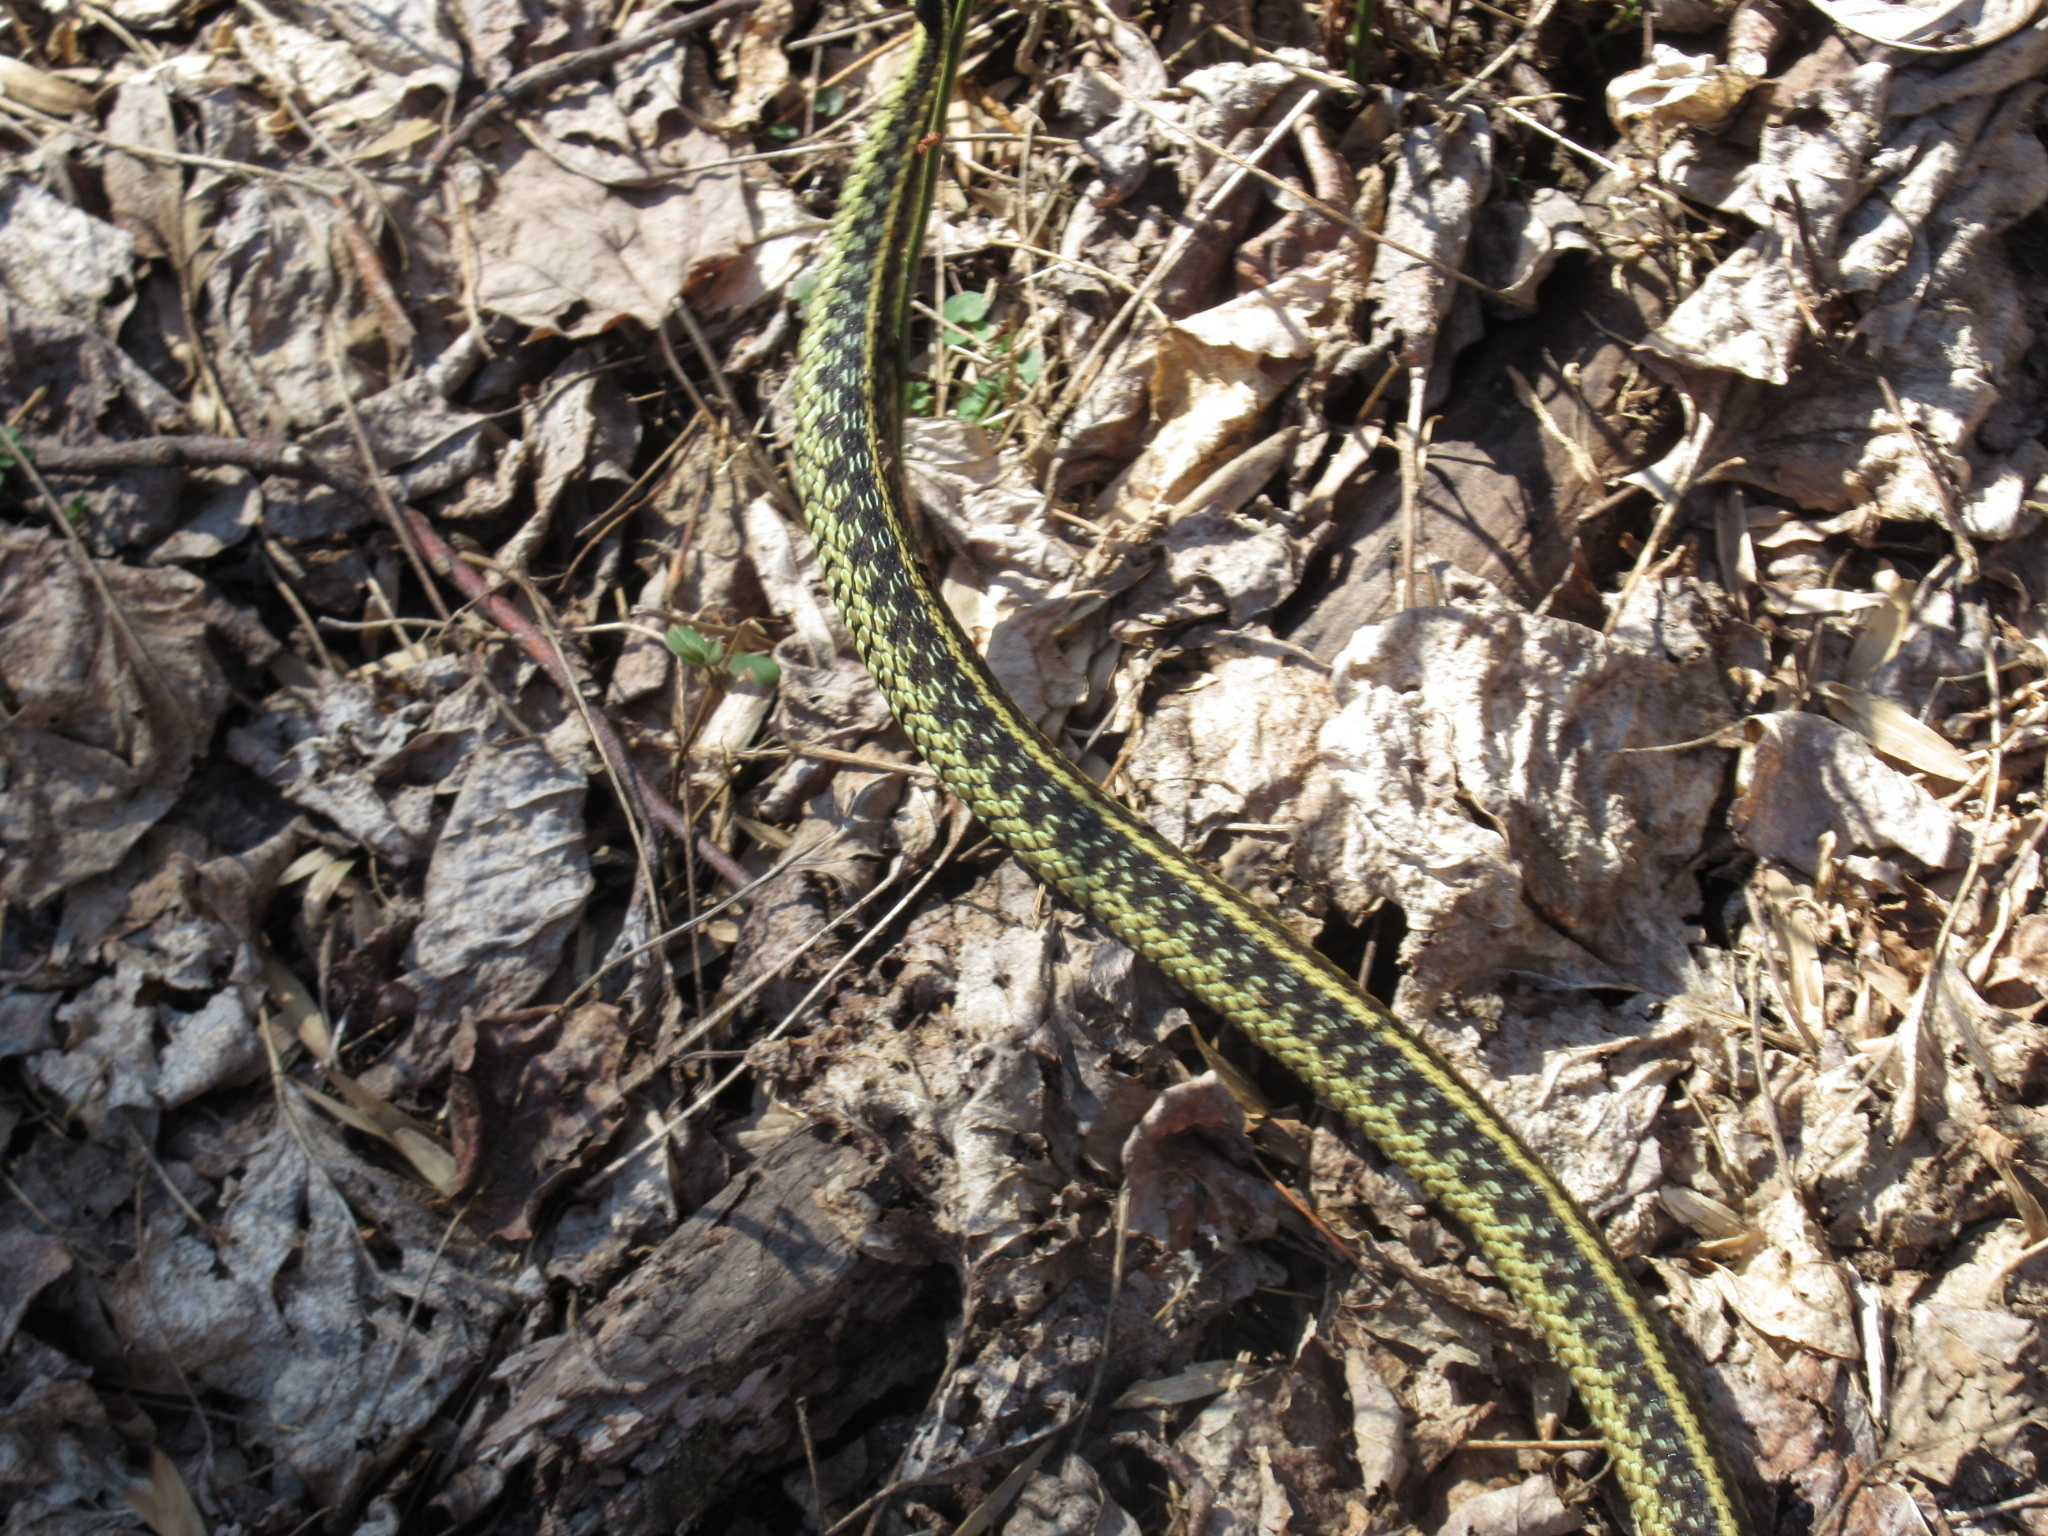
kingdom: Animalia
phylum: Chordata
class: Squamata
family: Colubridae
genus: Thamnophis
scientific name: Thamnophis sirtalis
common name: Common garter snake
